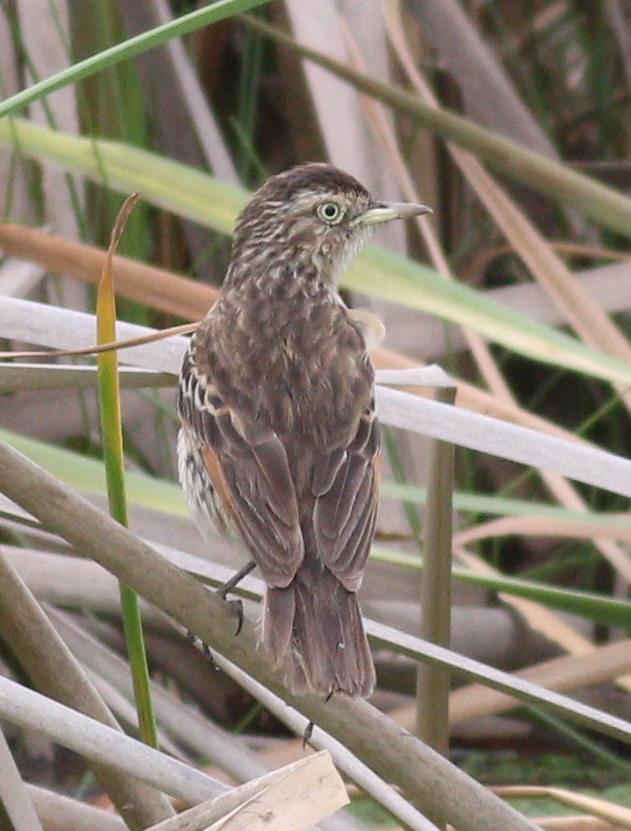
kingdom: Animalia
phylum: Chordata
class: Aves
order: Passeriformes
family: Tyrannidae
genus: Hymenops
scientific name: Hymenops perspicillatus
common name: Spectacled tyrant
